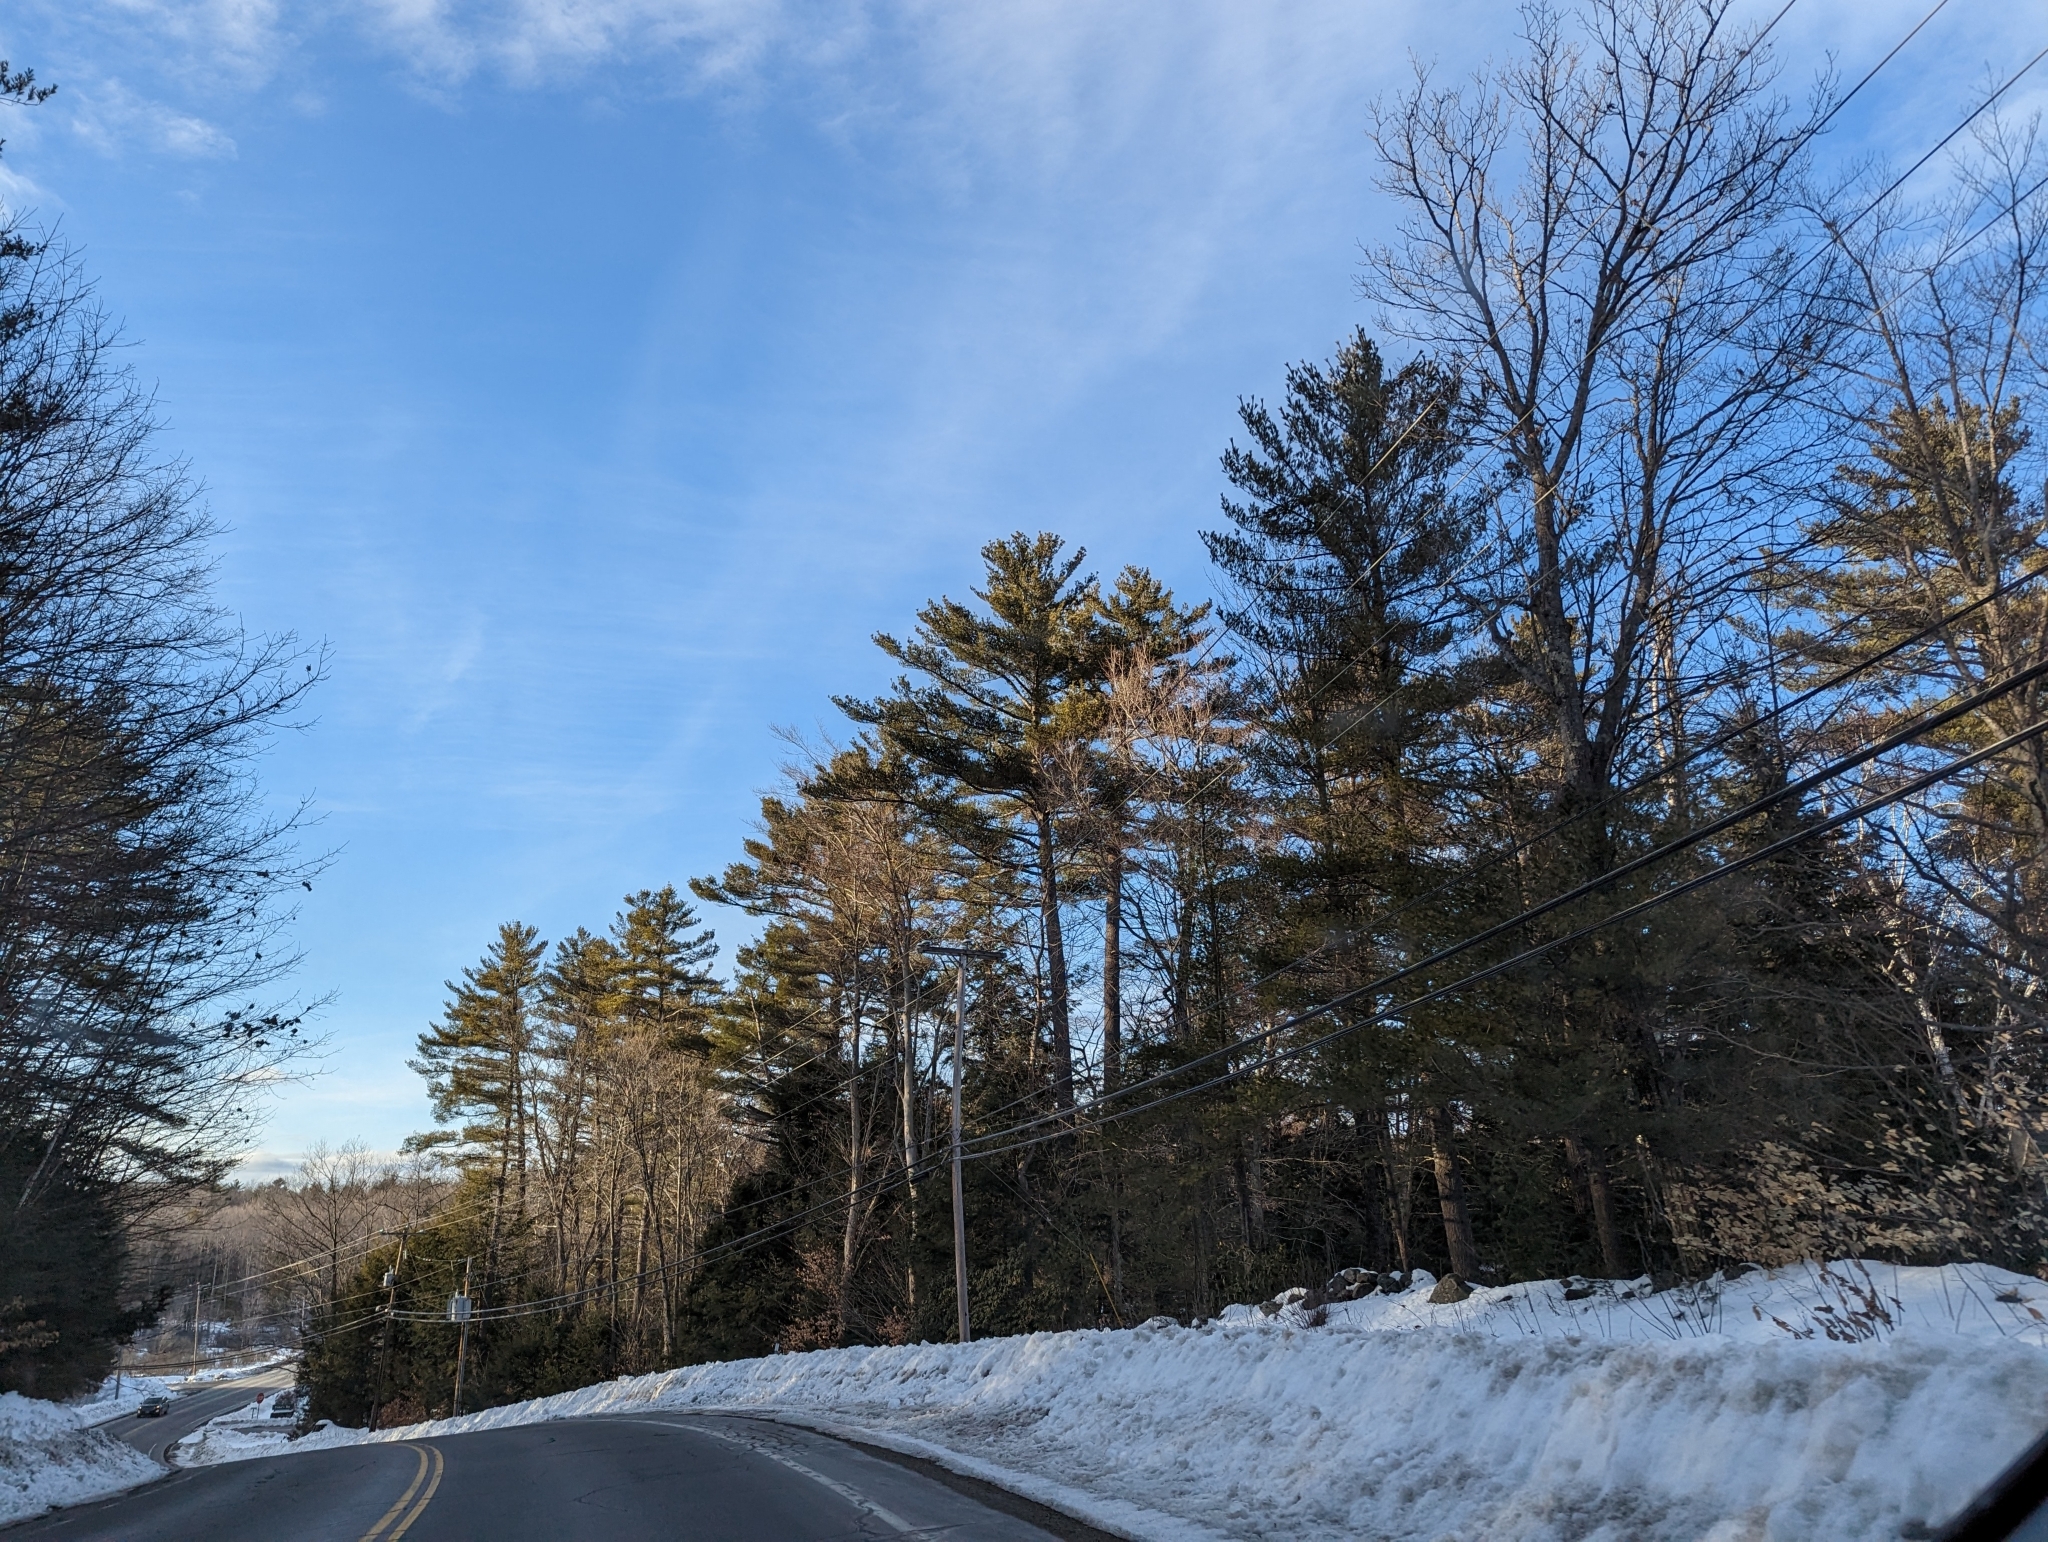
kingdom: Plantae
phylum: Tracheophyta
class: Pinopsida
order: Pinales
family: Pinaceae
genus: Pinus
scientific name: Pinus strobus
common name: Weymouth pine
